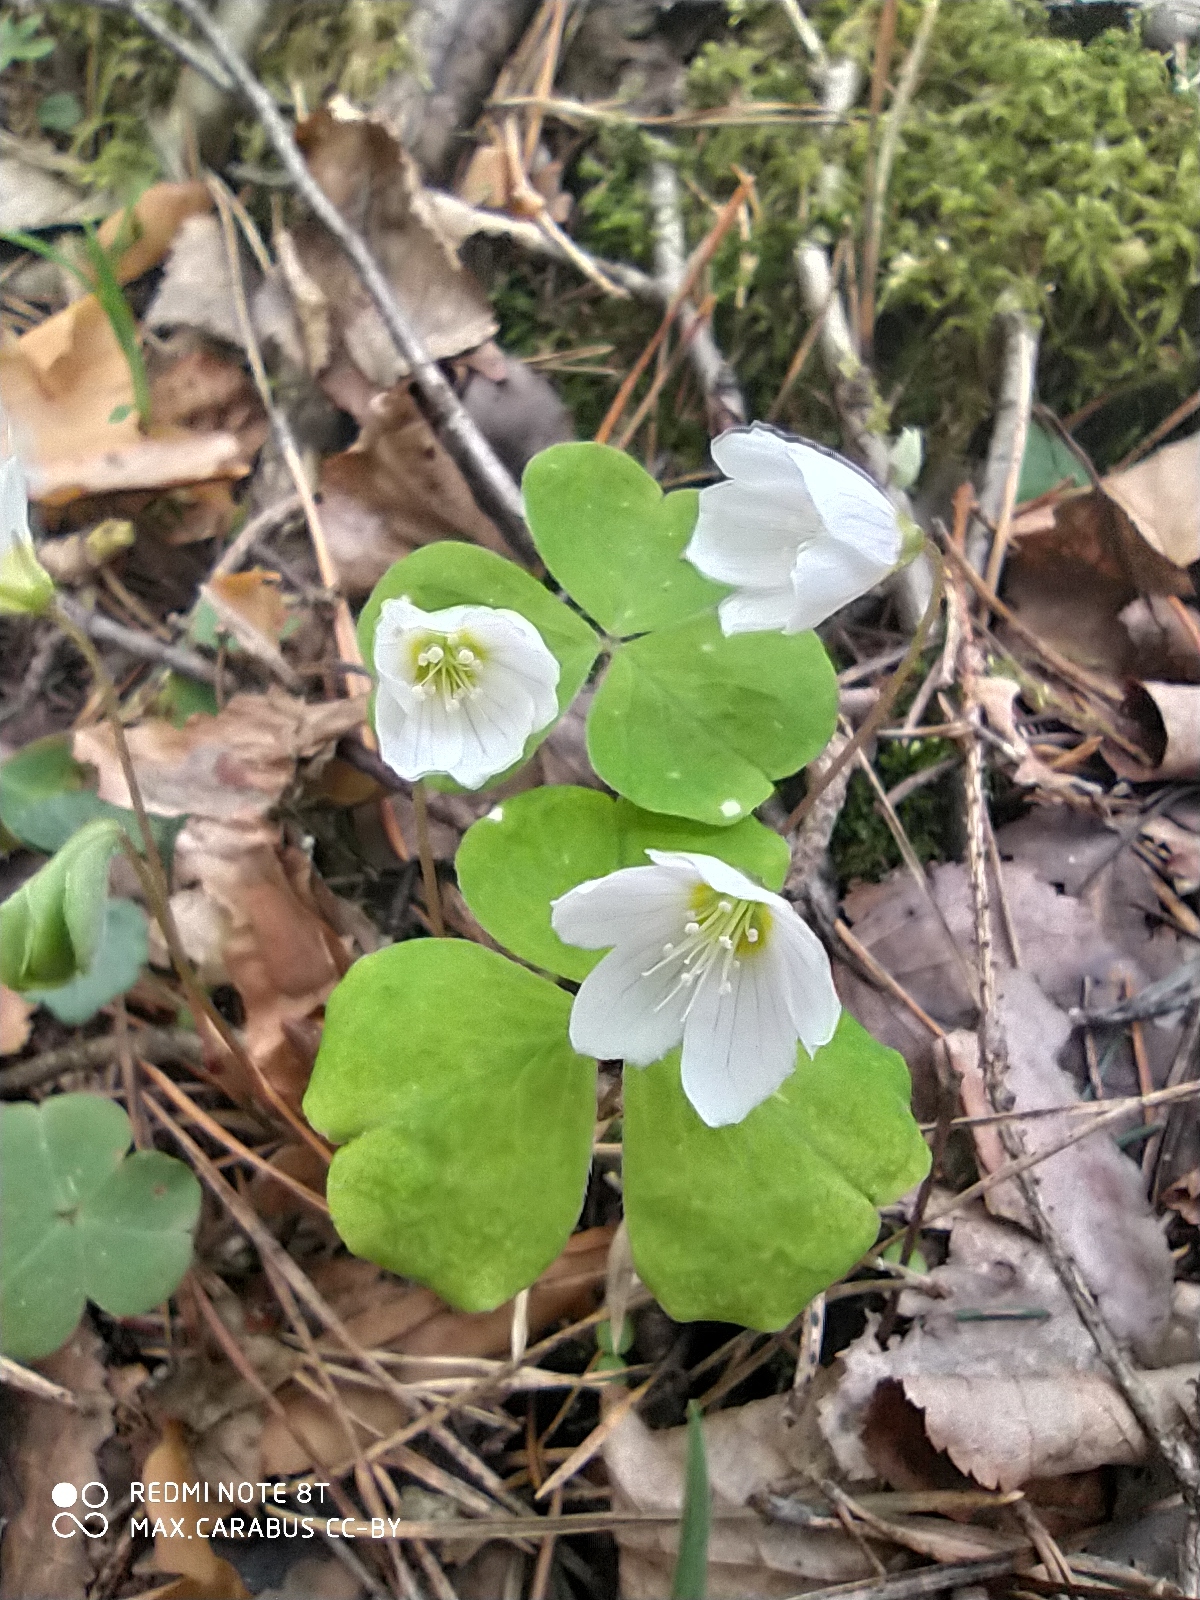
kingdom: Plantae
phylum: Tracheophyta
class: Magnoliopsida
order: Oxalidales
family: Oxalidaceae
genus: Oxalis
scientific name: Oxalis acetosella
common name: Wood-sorrel
